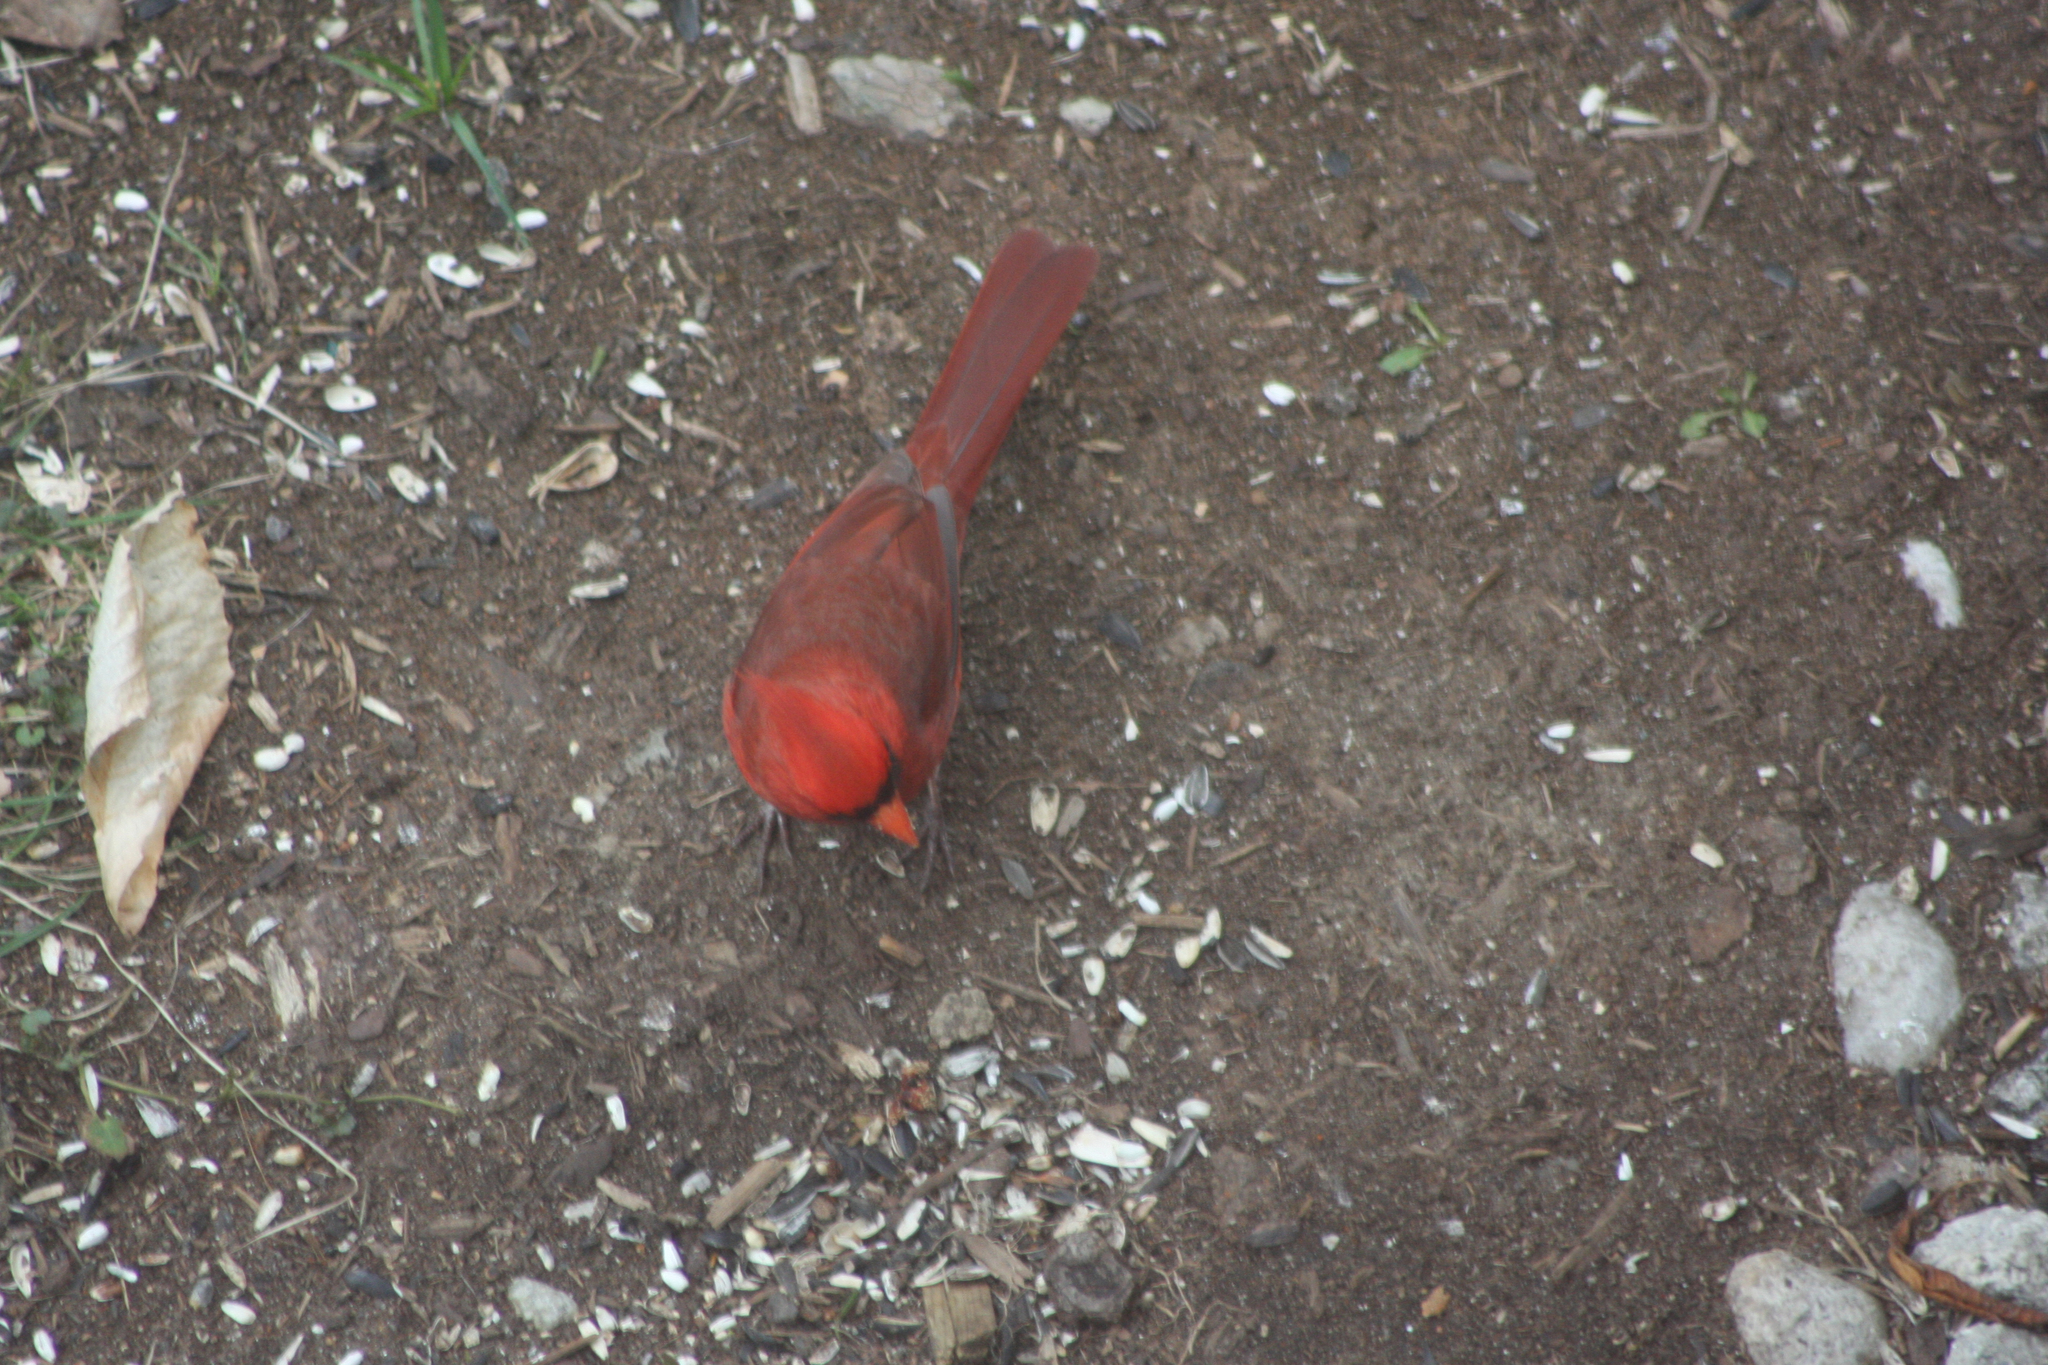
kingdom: Animalia
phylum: Chordata
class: Aves
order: Passeriformes
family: Cardinalidae
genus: Cardinalis
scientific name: Cardinalis cardinalis
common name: Northern cardinal
